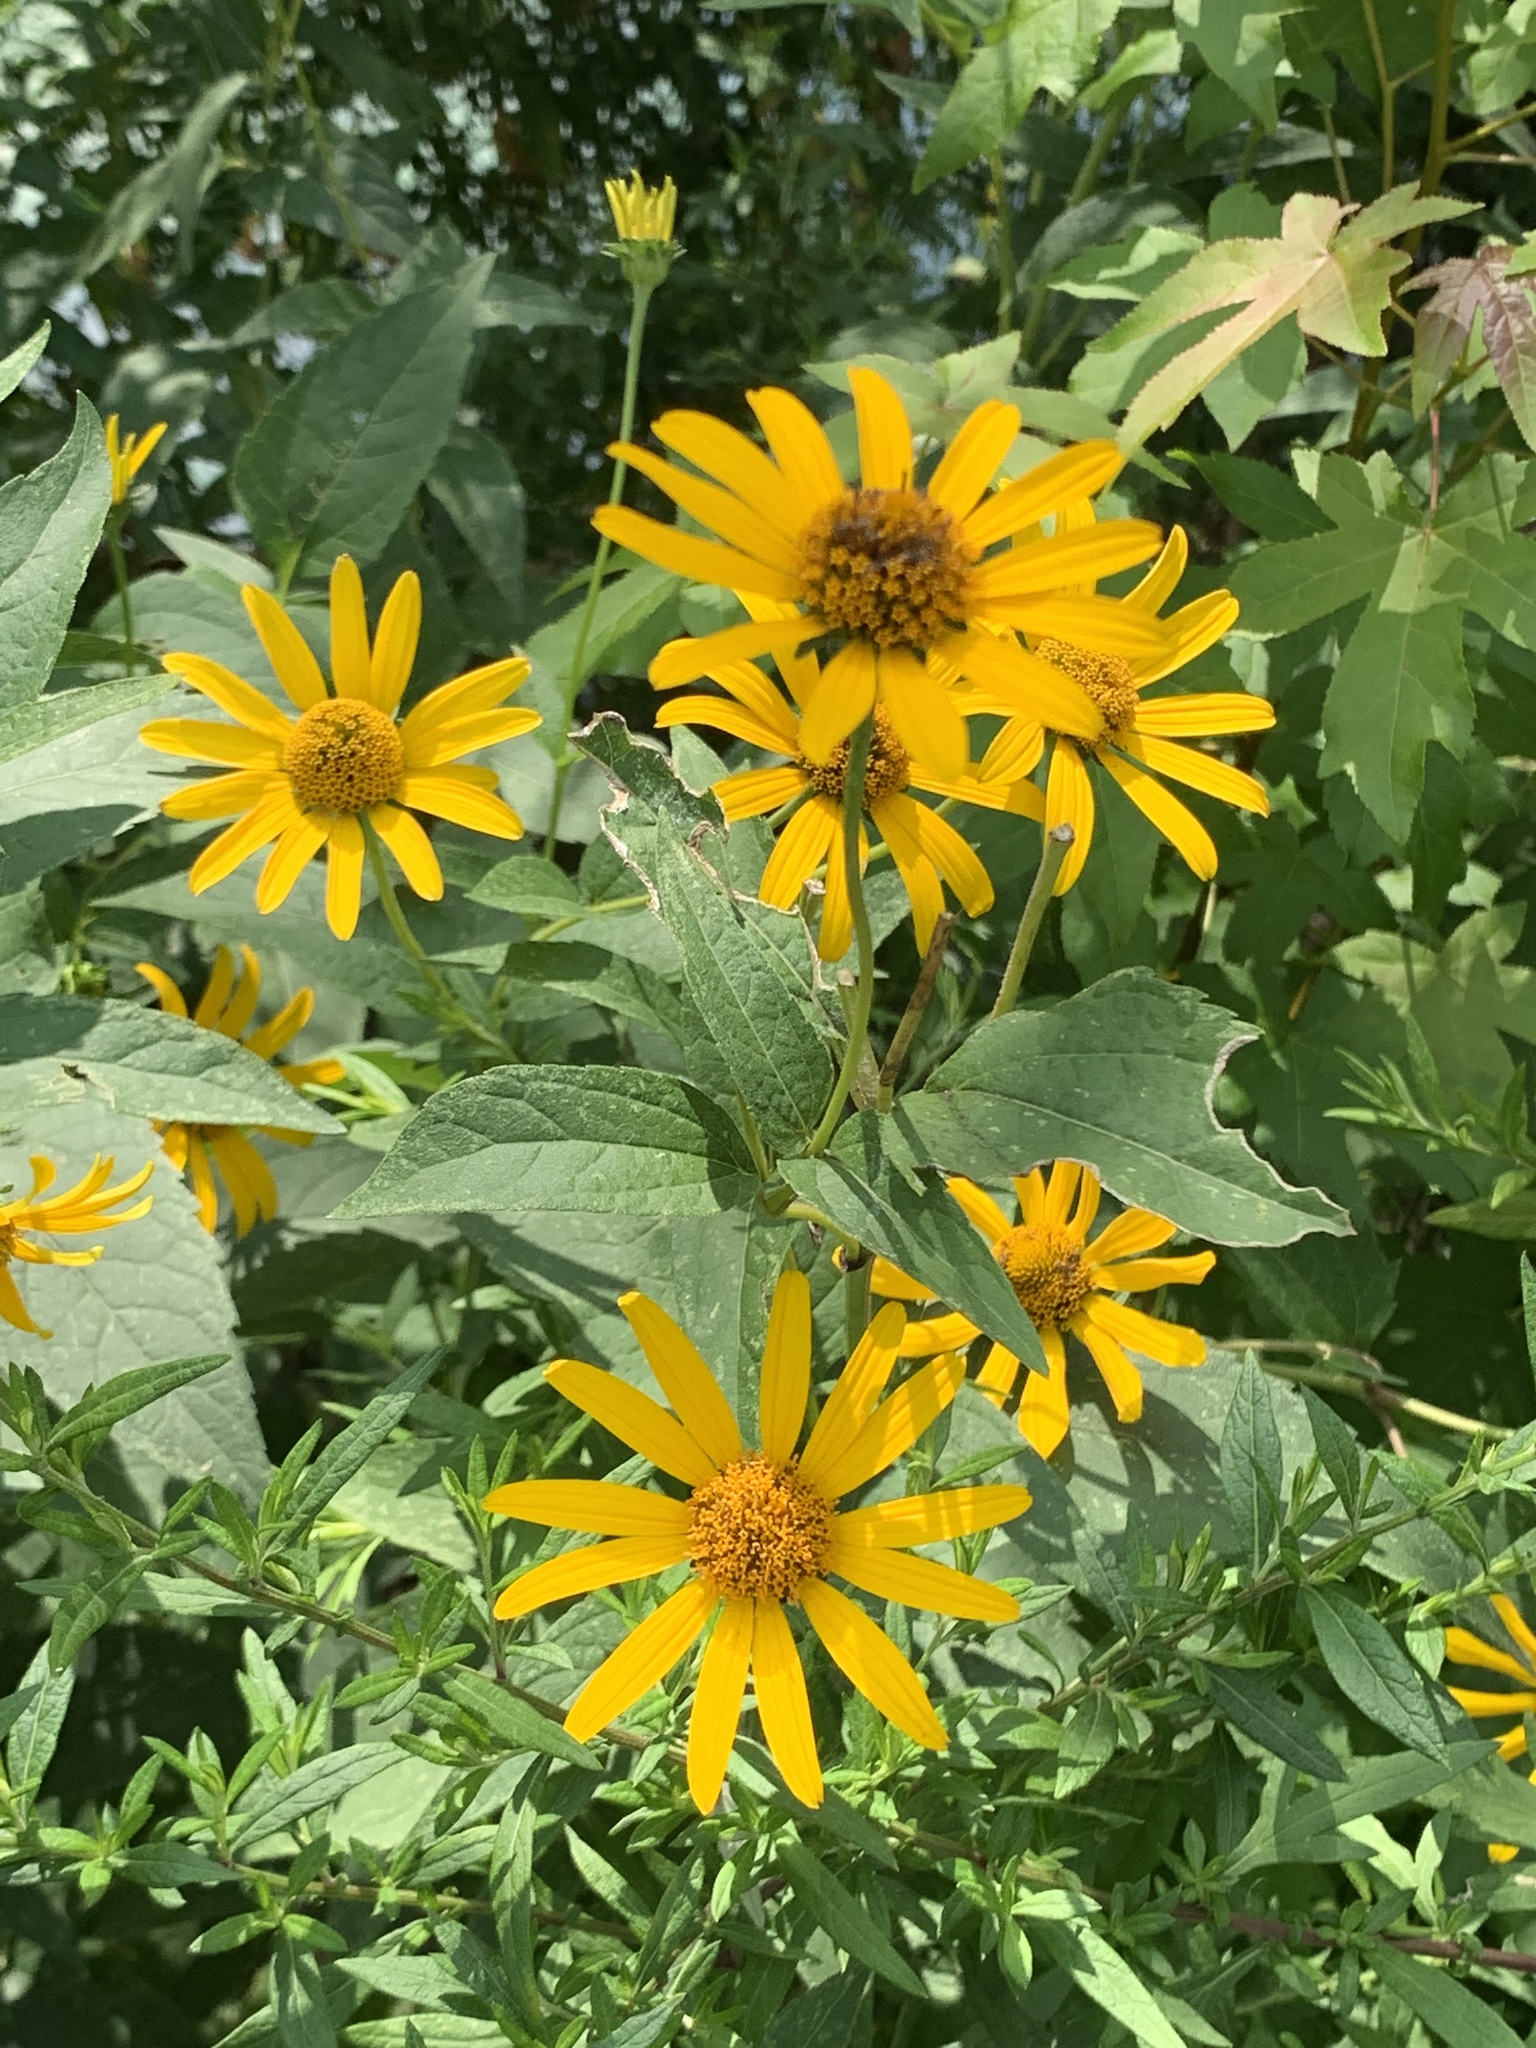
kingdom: Plantae
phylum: Tracheophyta
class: Magnoliopsida
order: Asterales
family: Asteraceae
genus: Heliopsis
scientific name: Heliopsis helianthoides
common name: False sunflower
